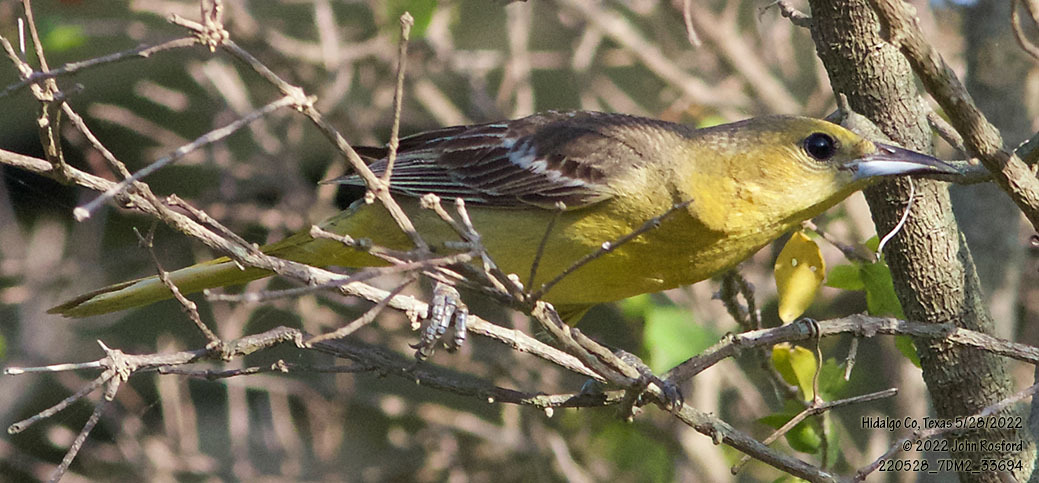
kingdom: Animalia
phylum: Chordata
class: Aves
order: Passeriformes
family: Icteridae
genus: Icterus
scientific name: Icterus cucullatus
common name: Hooded oriole
